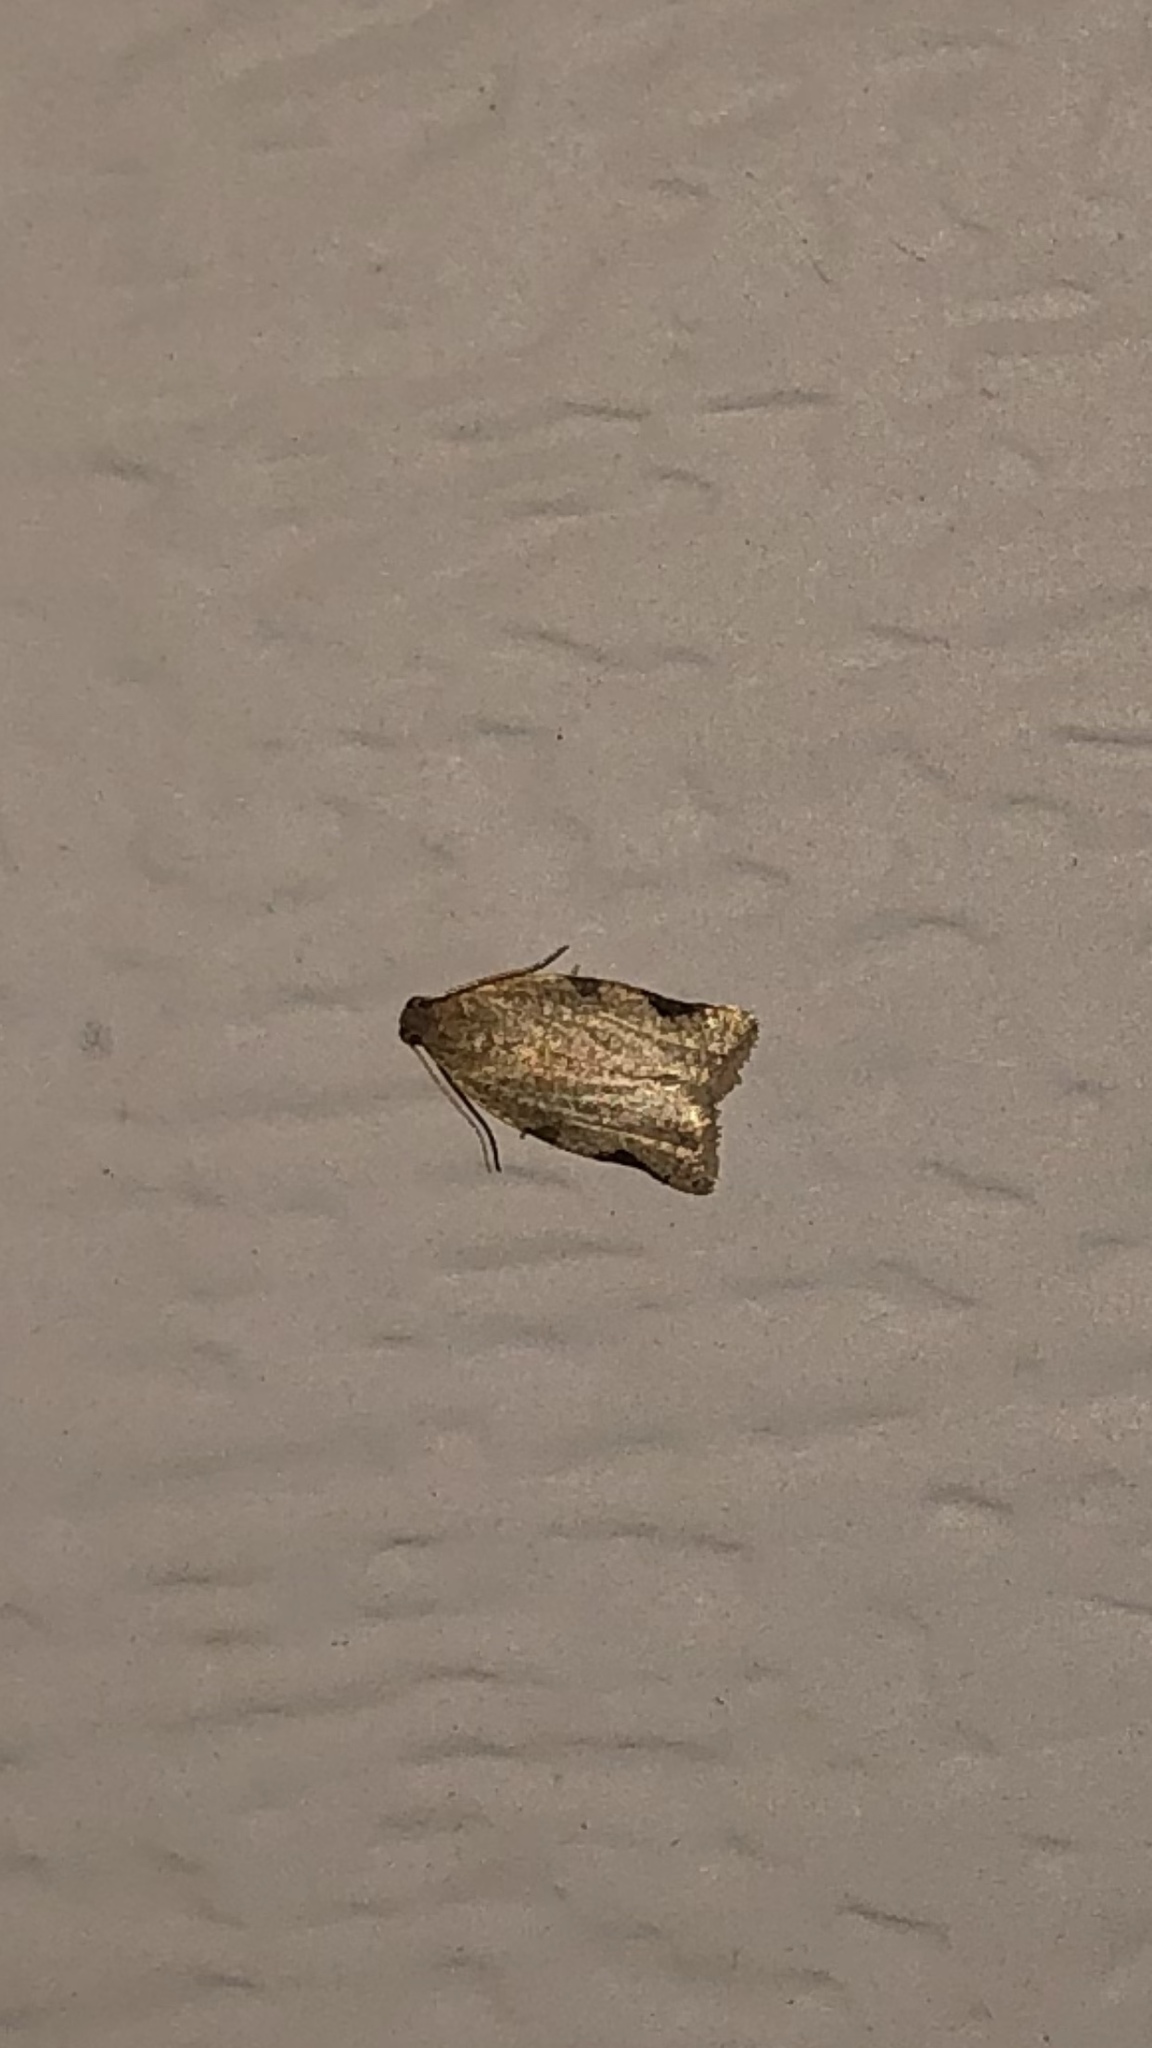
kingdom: Animalia
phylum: Arthropoda
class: Insecta
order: Lepidoptera
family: Tortricidae
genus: Clepsis
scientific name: Clepsis virescana
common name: Greenish apple moth
